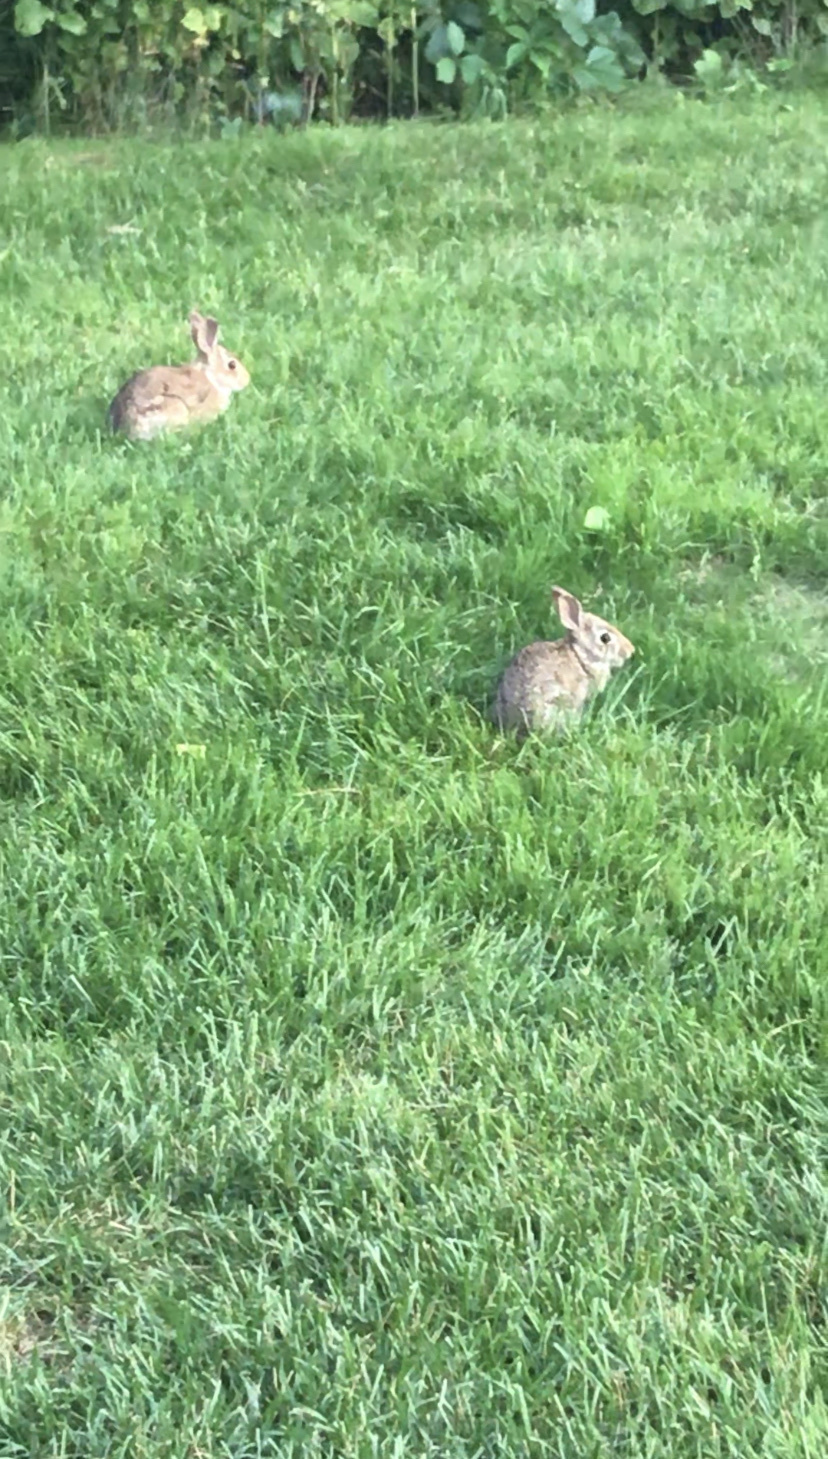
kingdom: Animalia
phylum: Chordata
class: Mammalia
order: Lagomorpha
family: Leporidae
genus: Sylvilagus
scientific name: Sylvilagus floridanus
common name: Eastern cottontail
